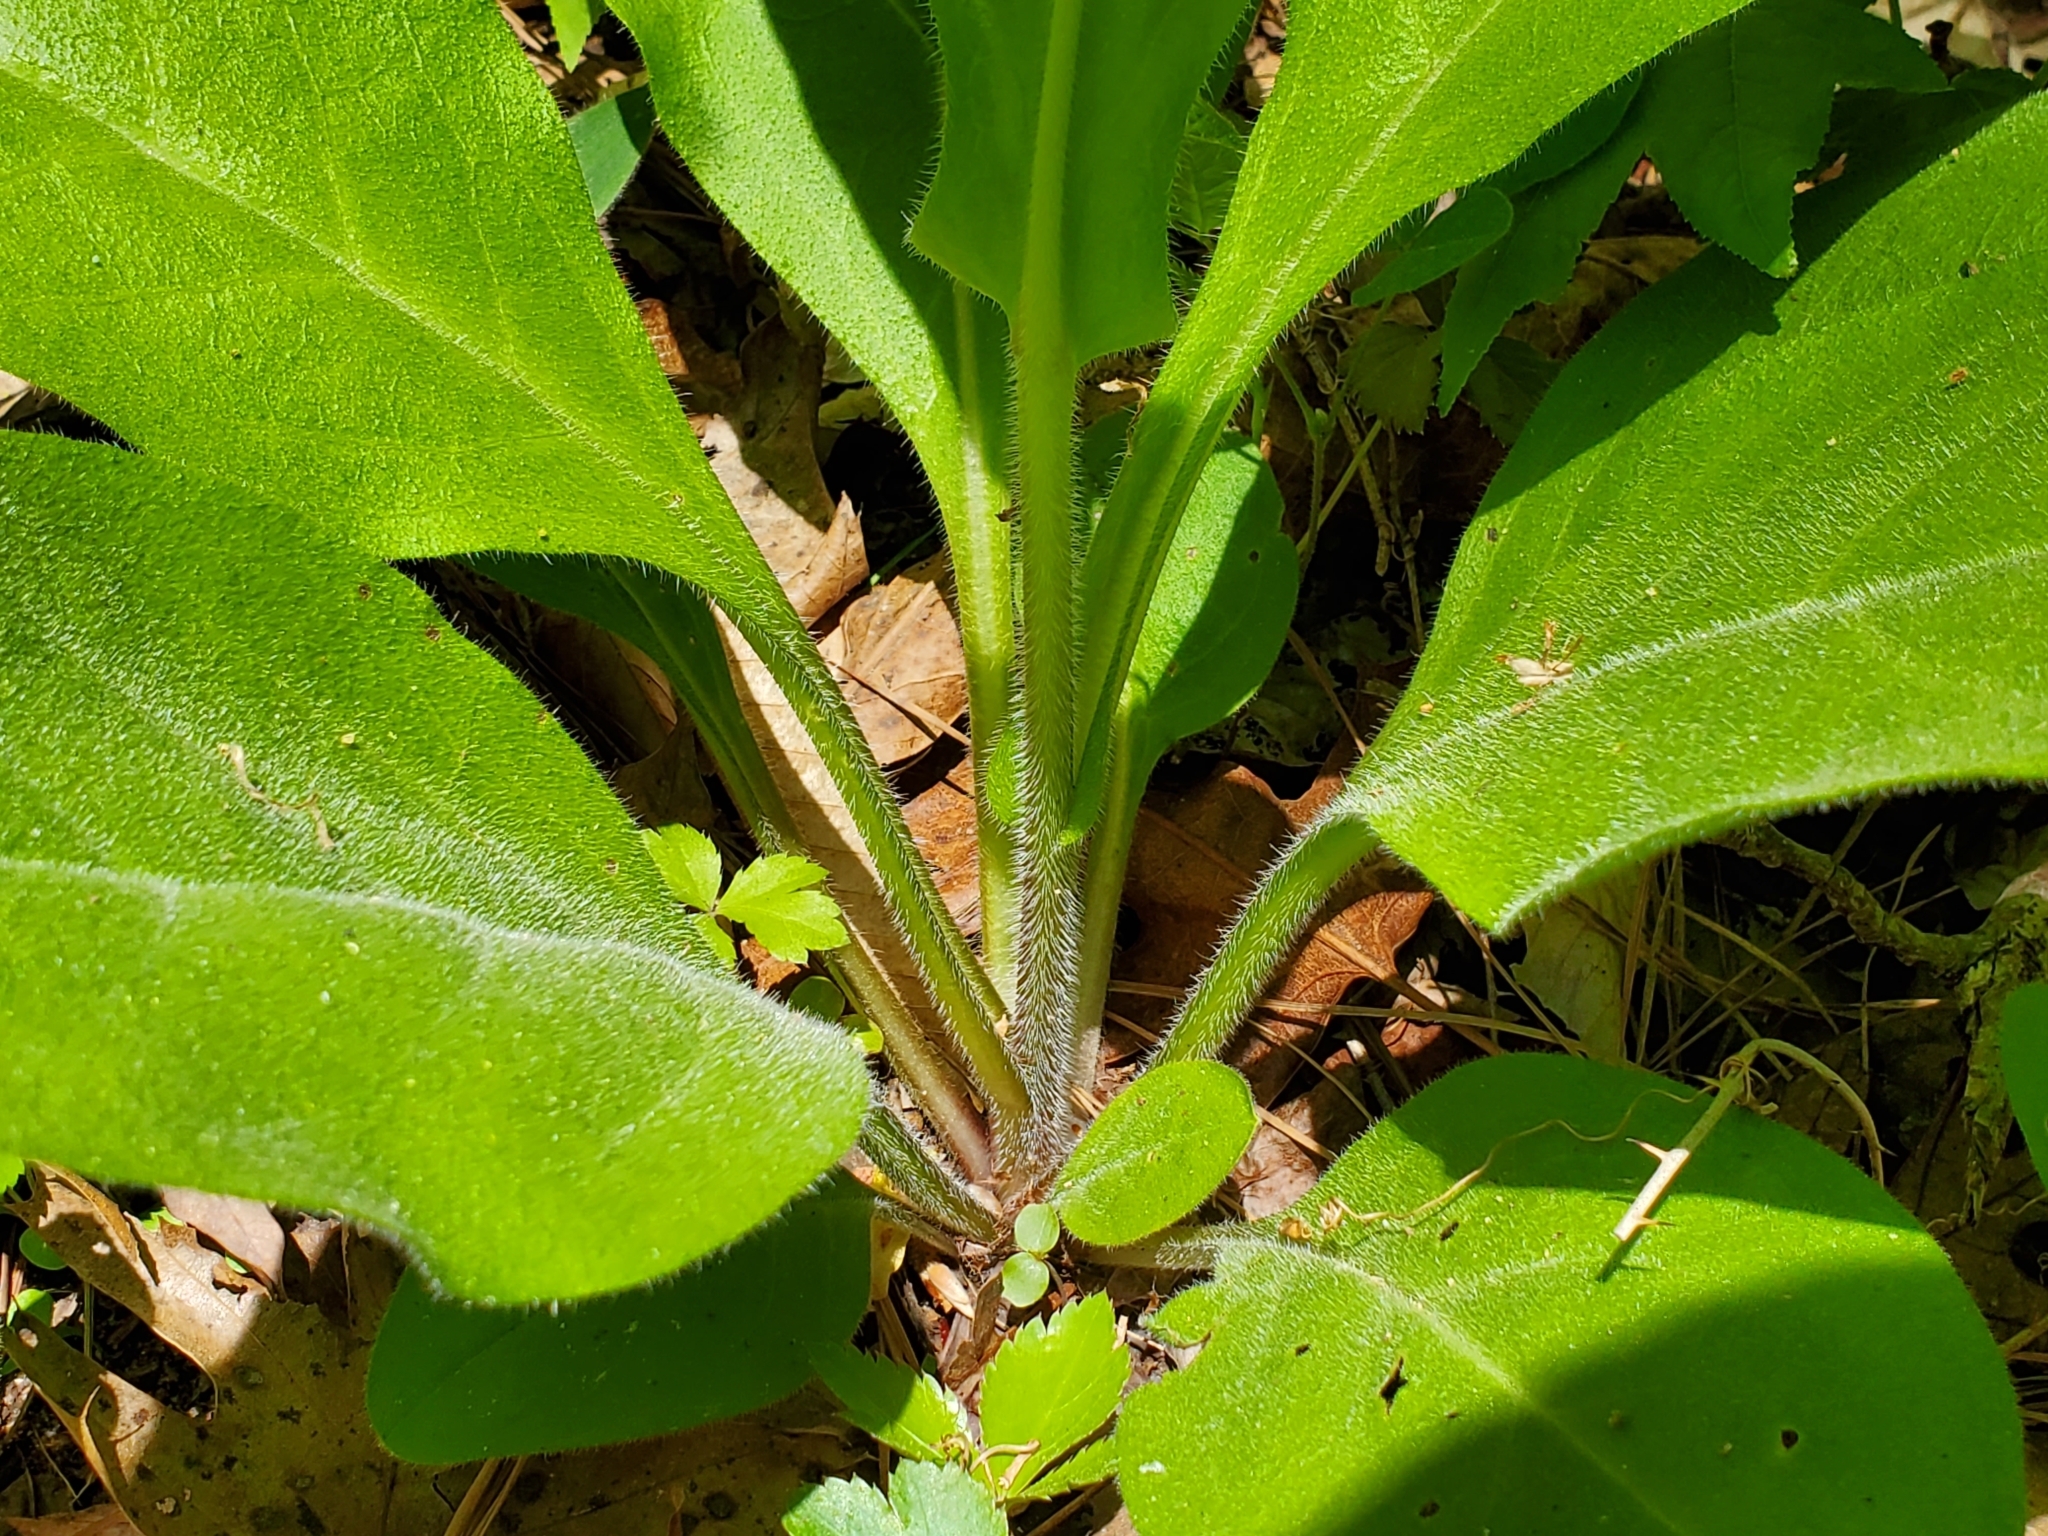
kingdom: Plantae
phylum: Tracheophyta
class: Magnoliopsida
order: Boraginales
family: Boraginaceae
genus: Andersonglossum
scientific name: Andersonglossum virginianum
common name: Wild comfrey
